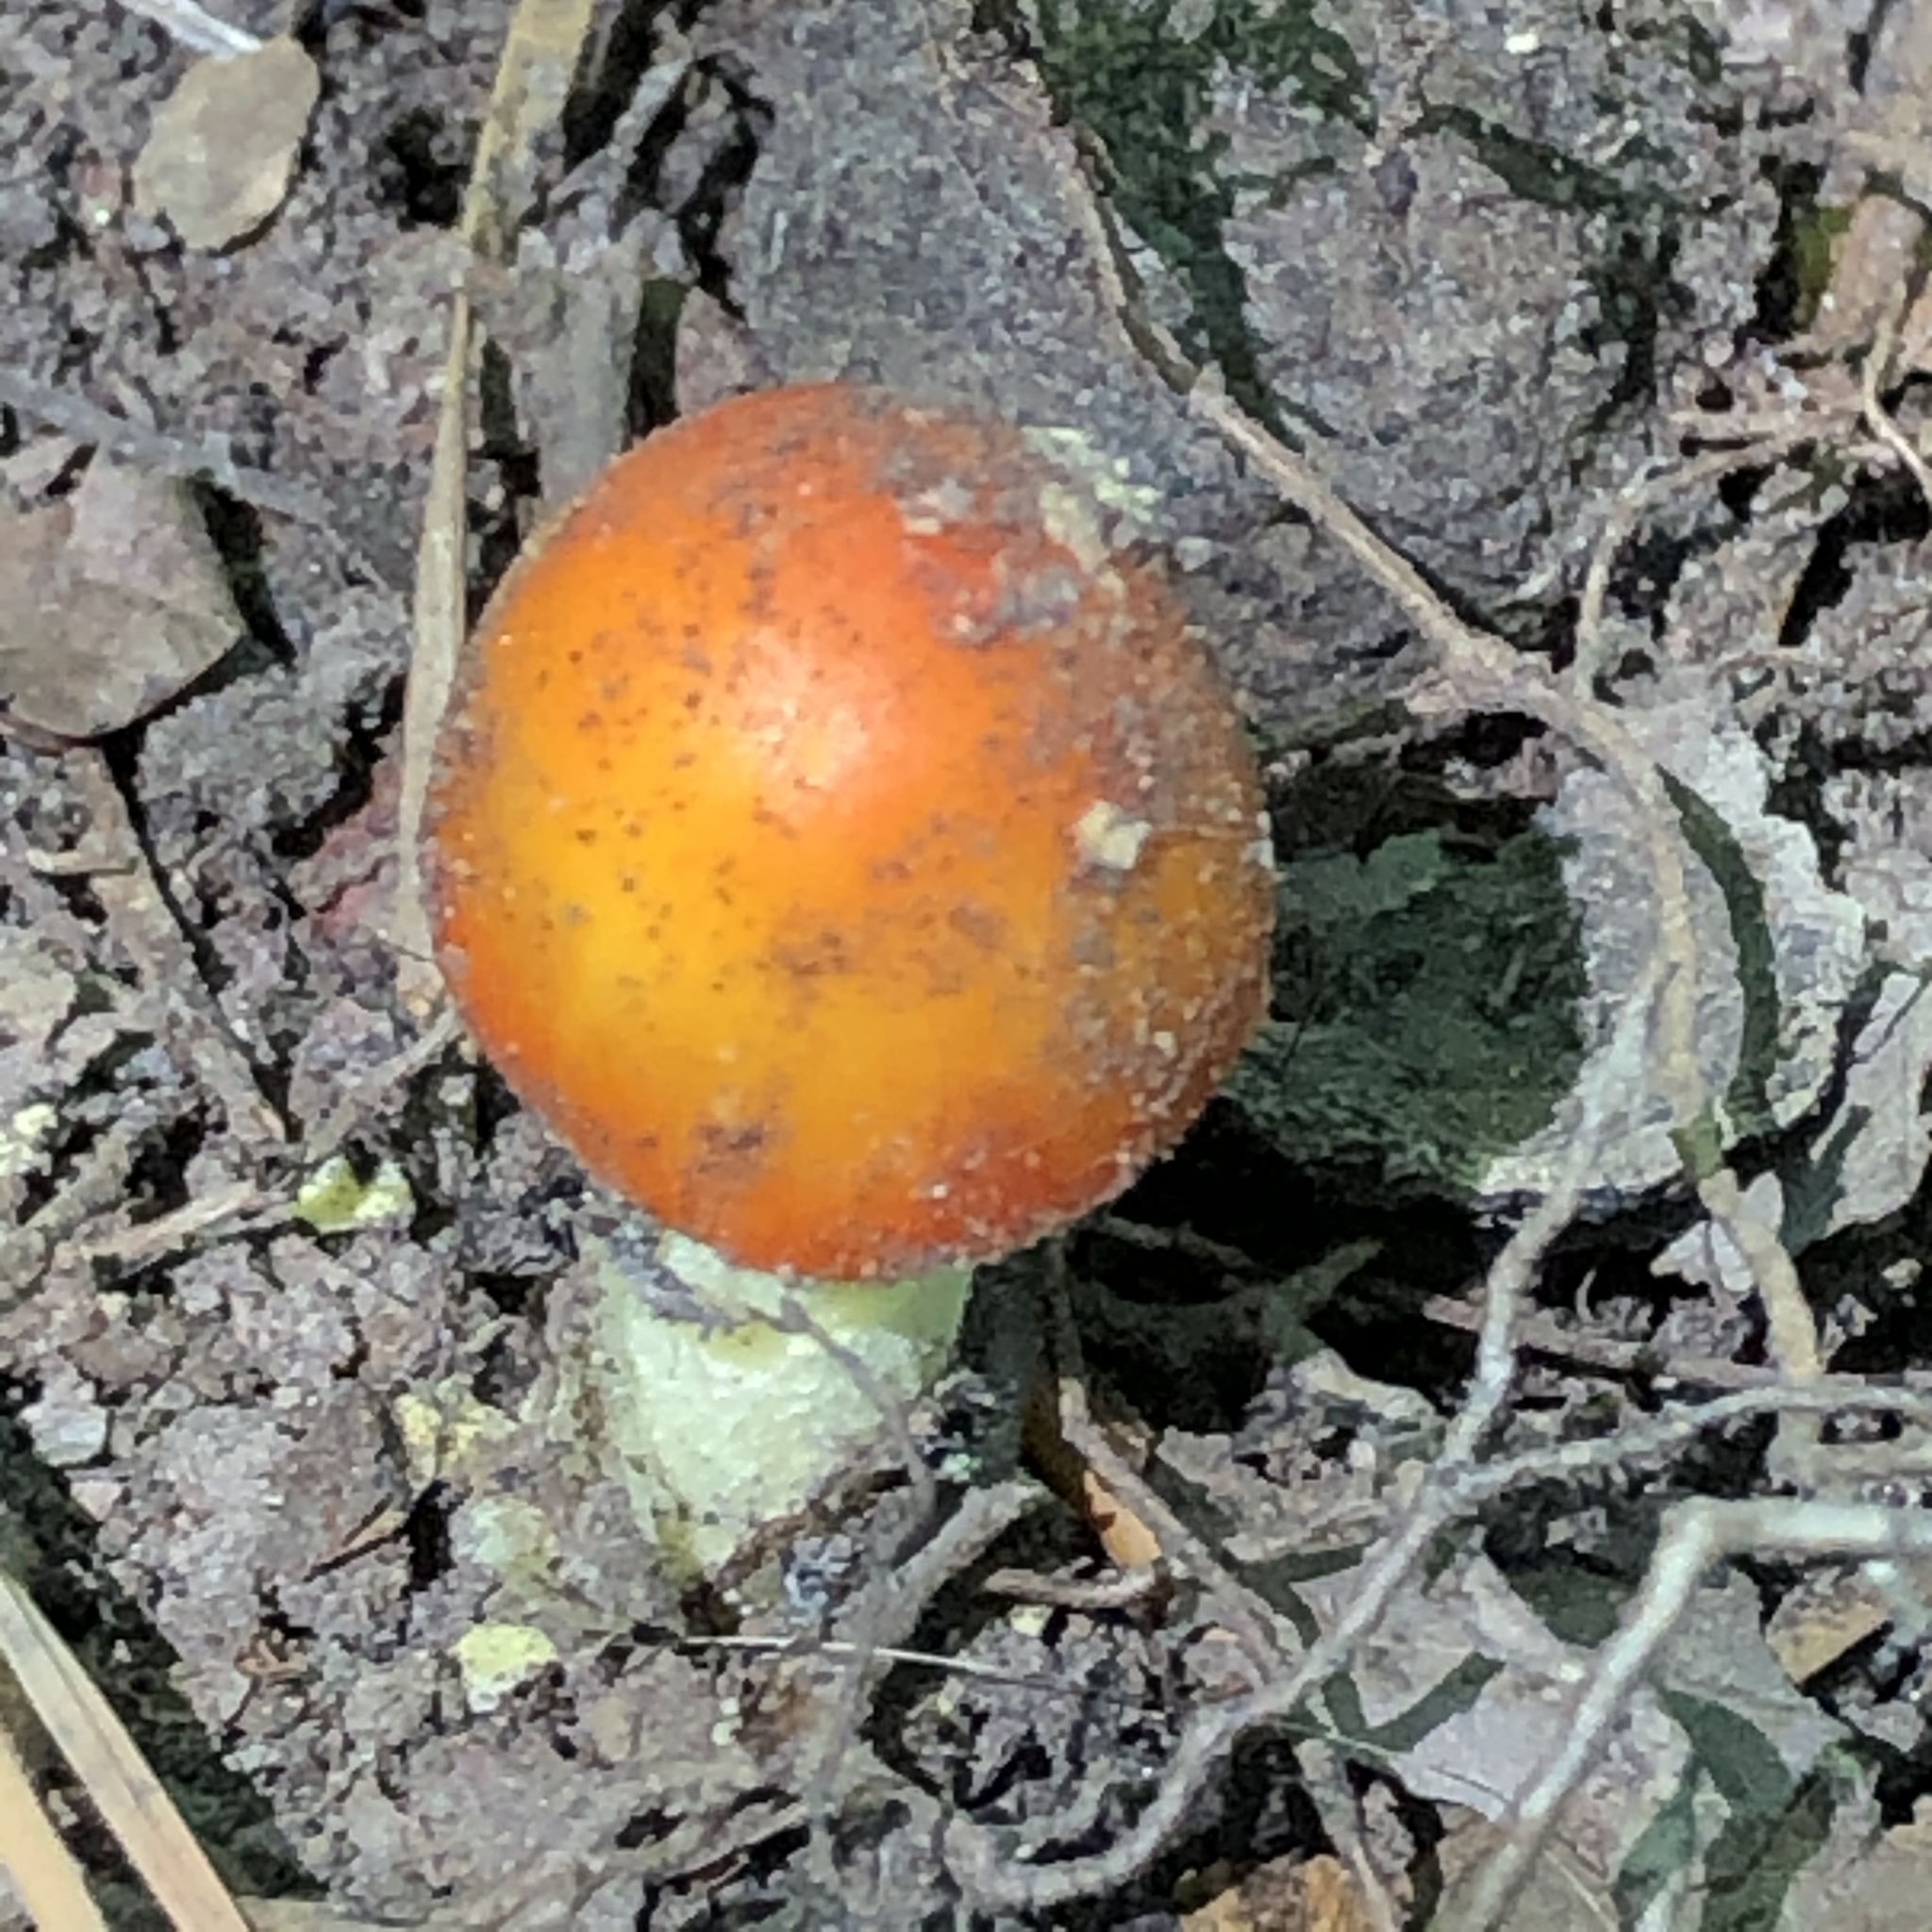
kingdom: Fungi
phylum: Basidiomycota
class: Agaricomycetes
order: Agaricales
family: Amanitaceae
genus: Amanita
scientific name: Amanita parcivolvata
